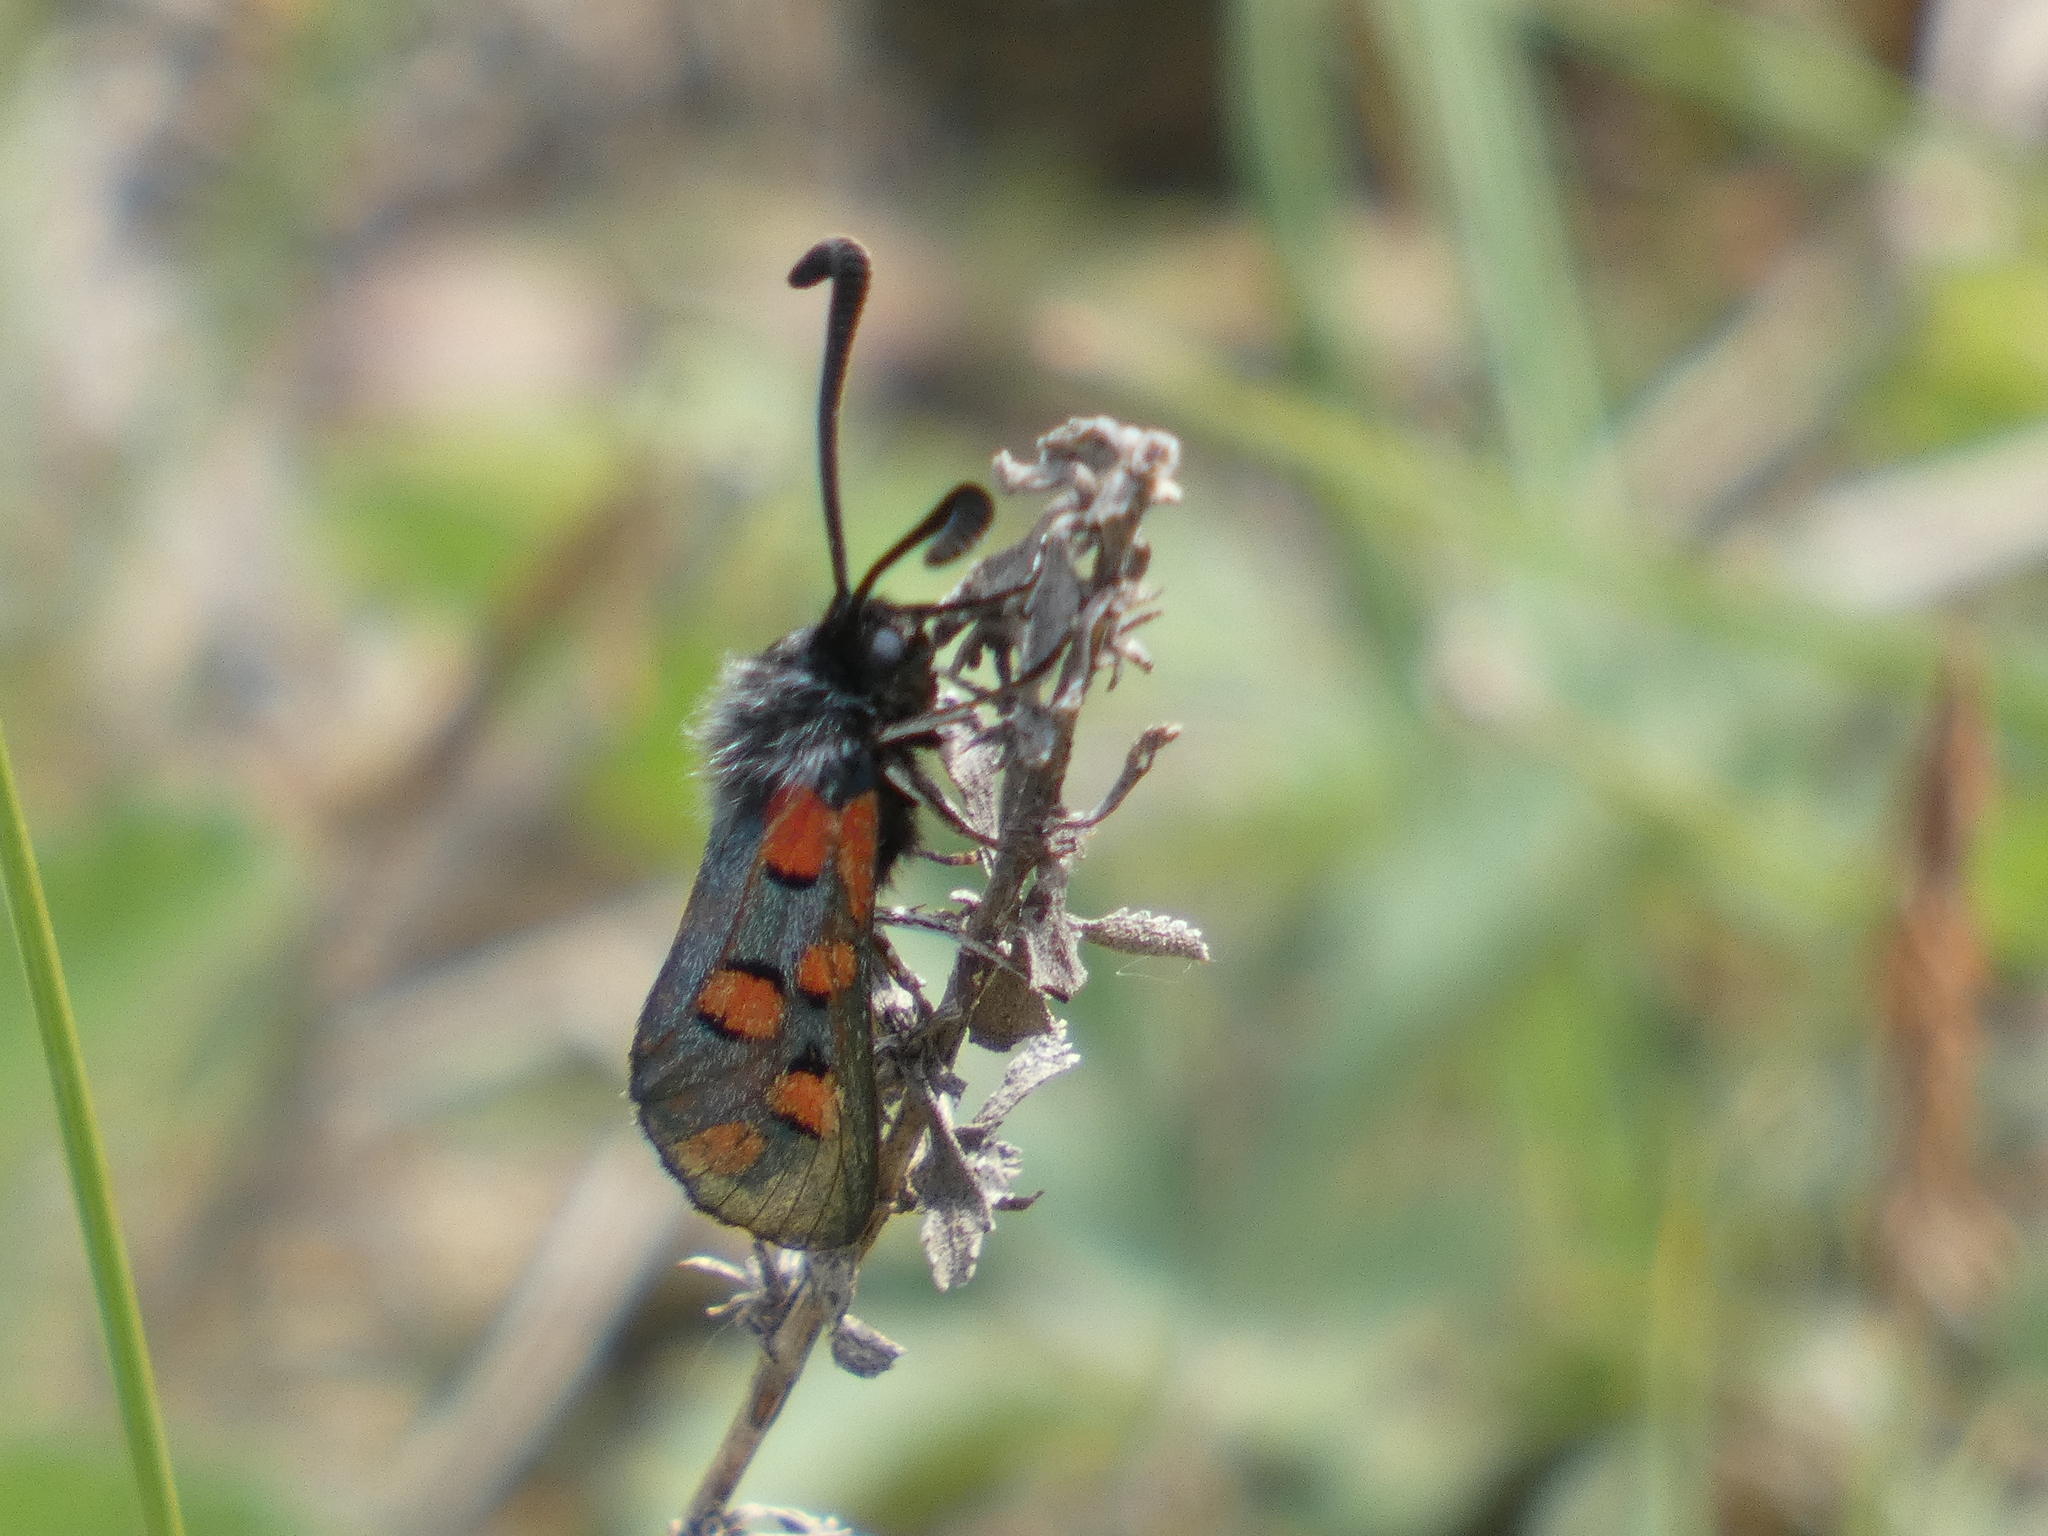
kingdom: Animalia
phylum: Arthropoda
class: Insecta
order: Lepidoptera
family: Zygaenidae
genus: Zygaena
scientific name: Zygaena rhadamanthus
